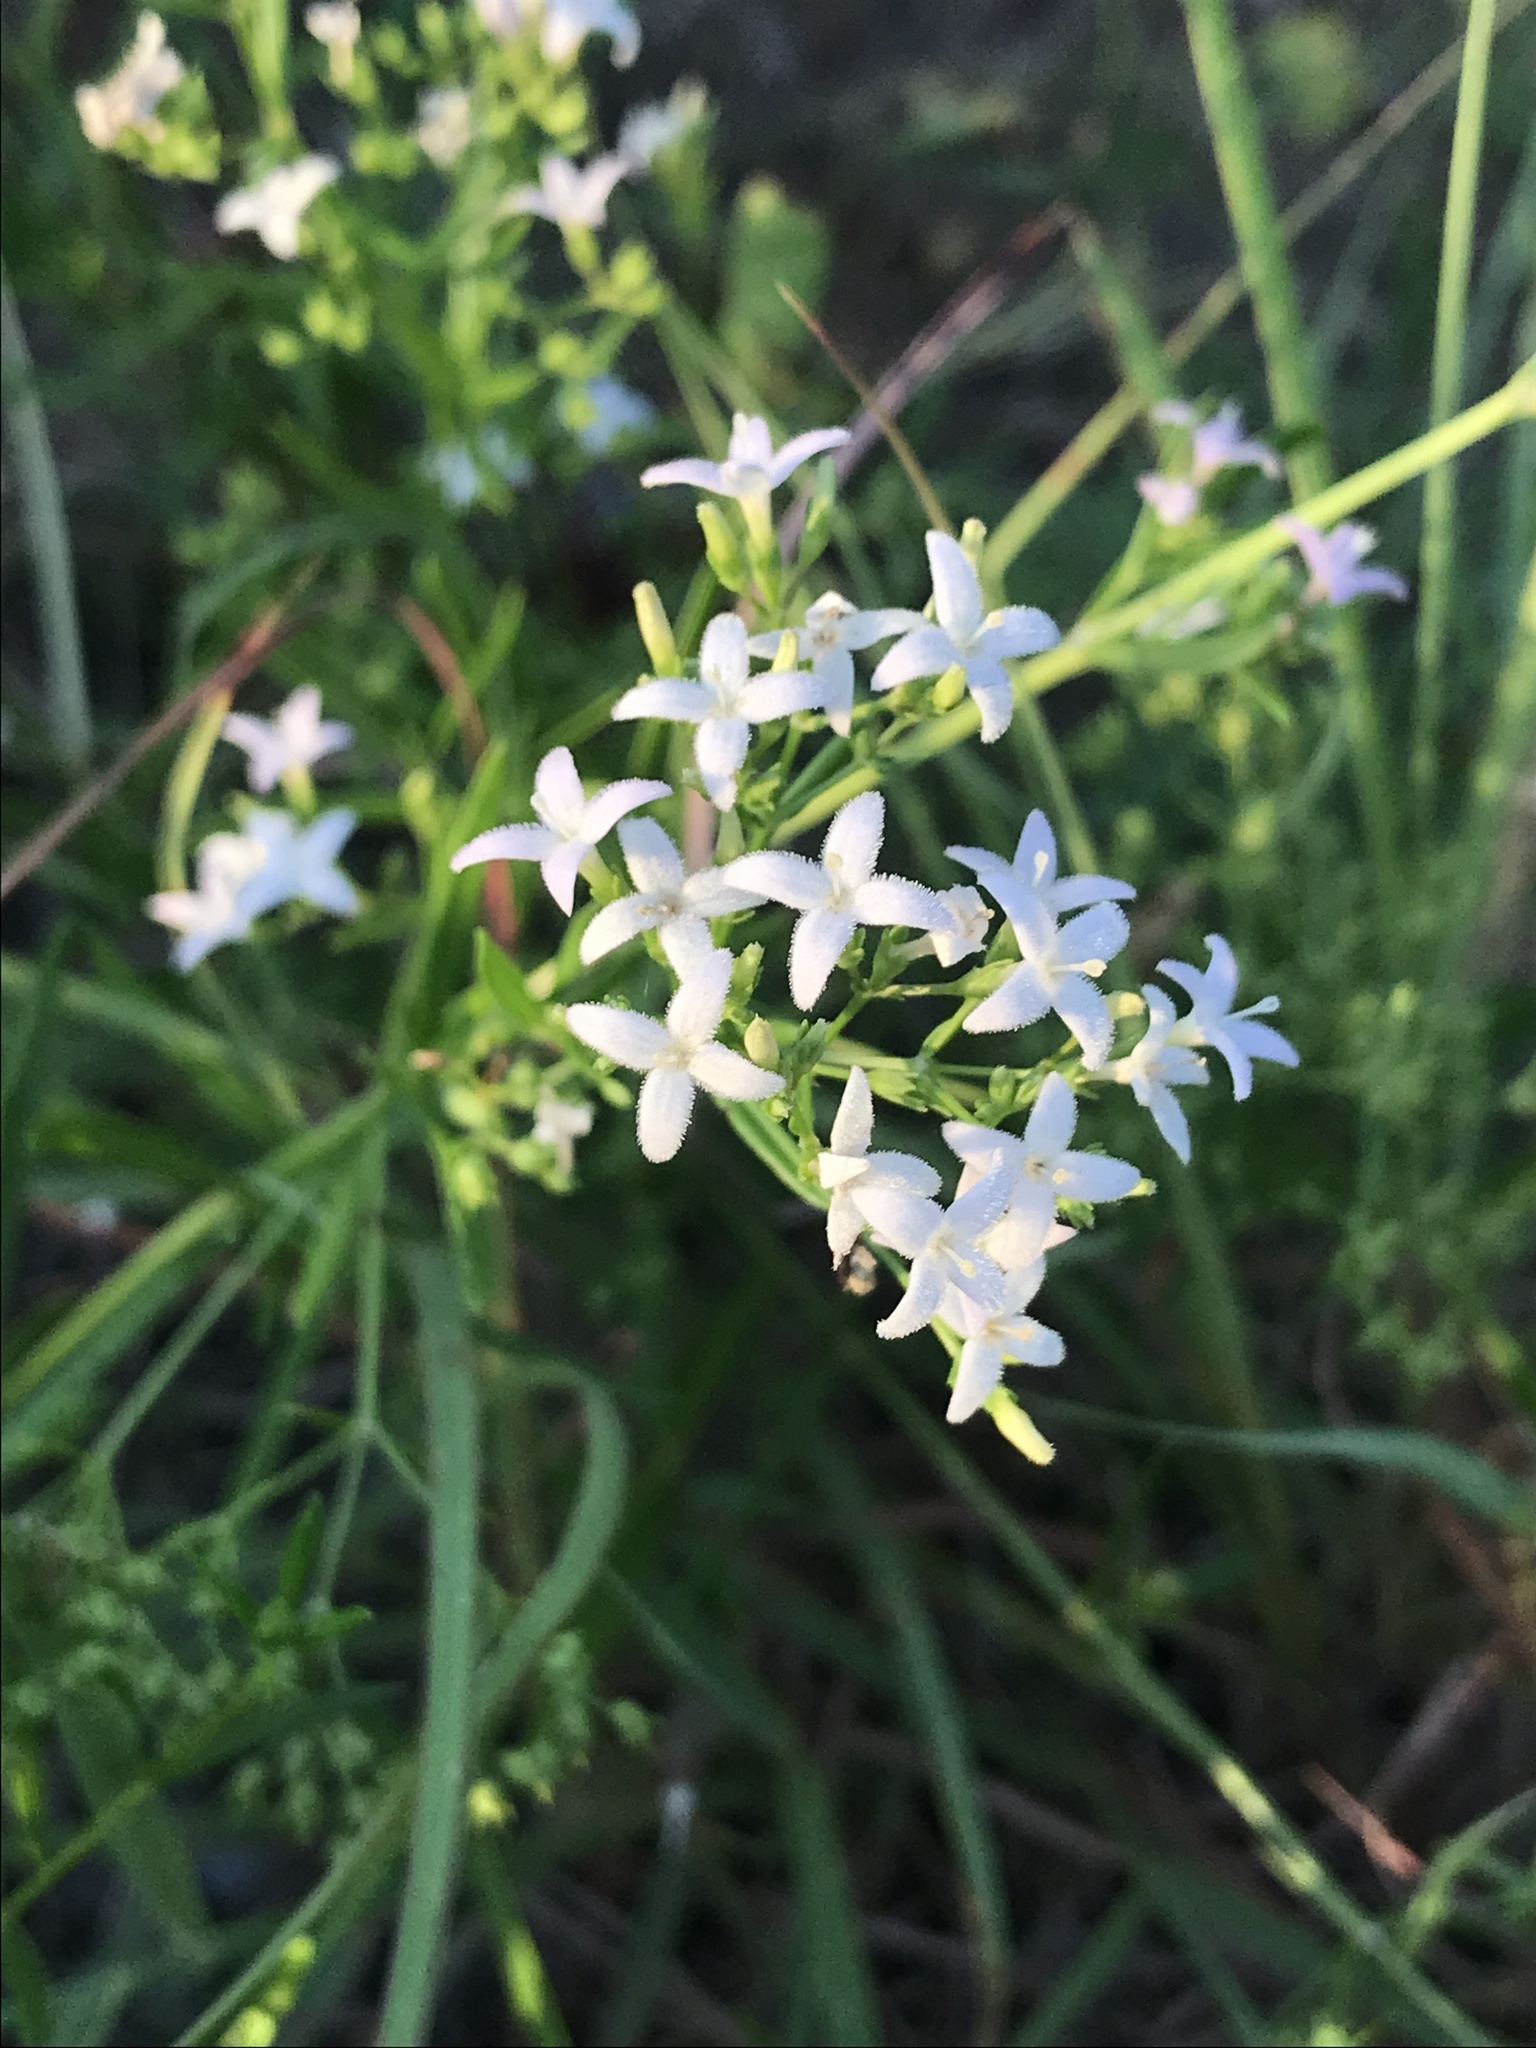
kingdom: Plantae
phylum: Tracheophyta
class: Magnoliopsida
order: Gentianales
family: Rubiaceae
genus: Stenaria
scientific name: Stenaria nigricans
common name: Diamondflowers
